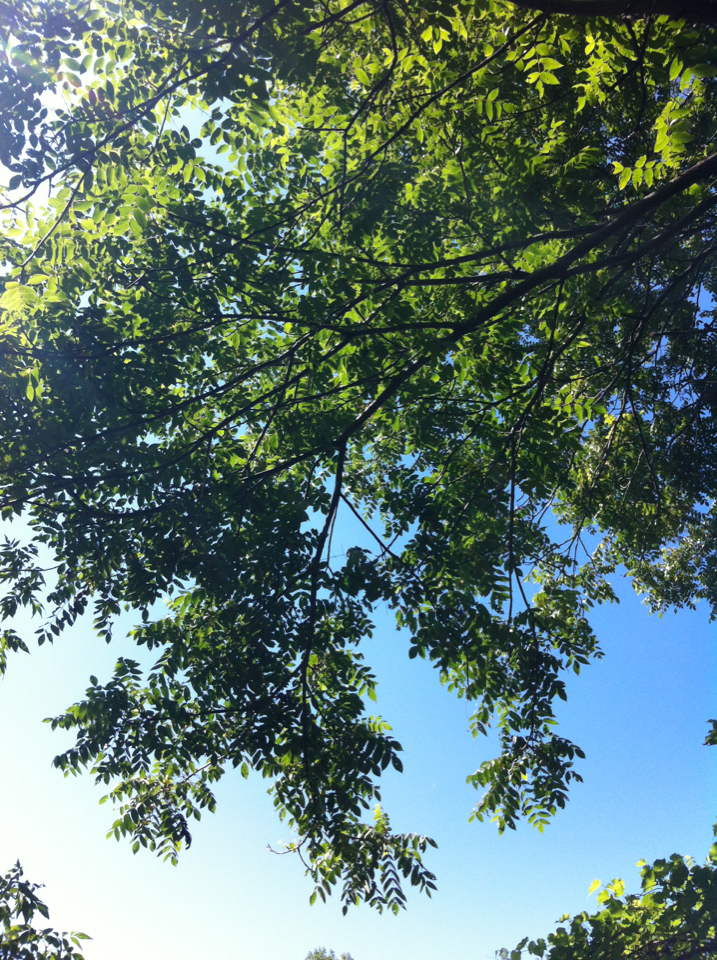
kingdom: Plantae
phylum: Tracheophyta
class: Magnoliopsida
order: Fagales
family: Juglandaceae
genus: Juglans
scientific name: Juglans cinerea
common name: Butternut
